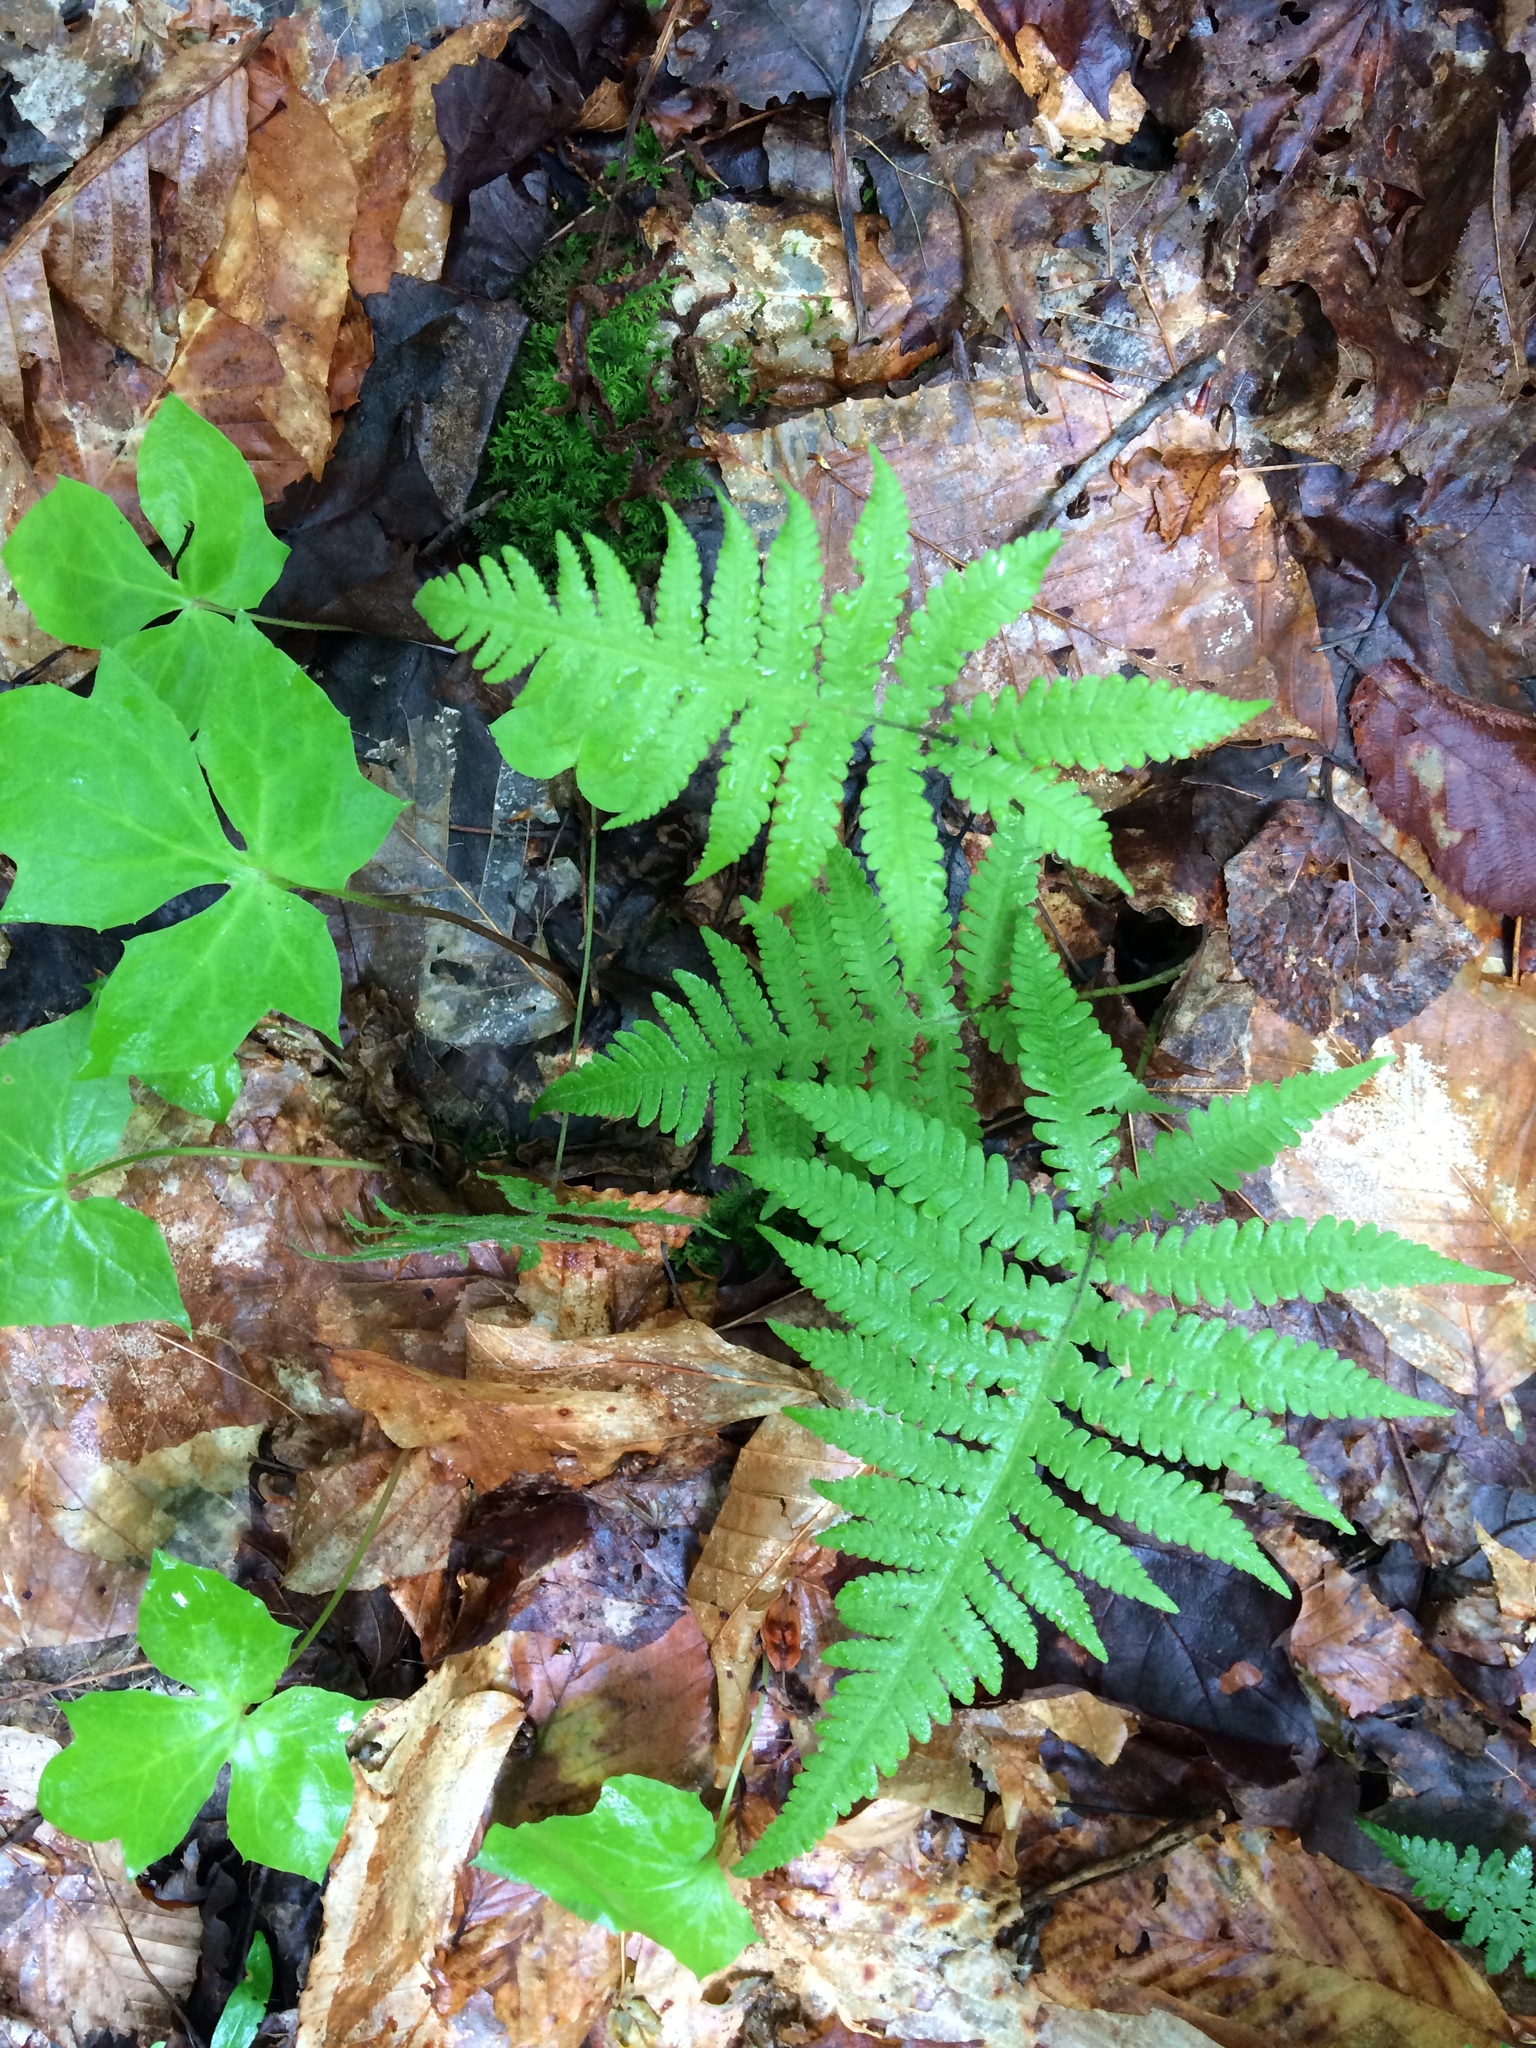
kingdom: Plantae
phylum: Tracheophyta
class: Polypodiopsida
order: Polypodiales
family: Thelypteridaceae
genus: Phegopteris
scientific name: Phegopteris connectilis
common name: Beech fern
